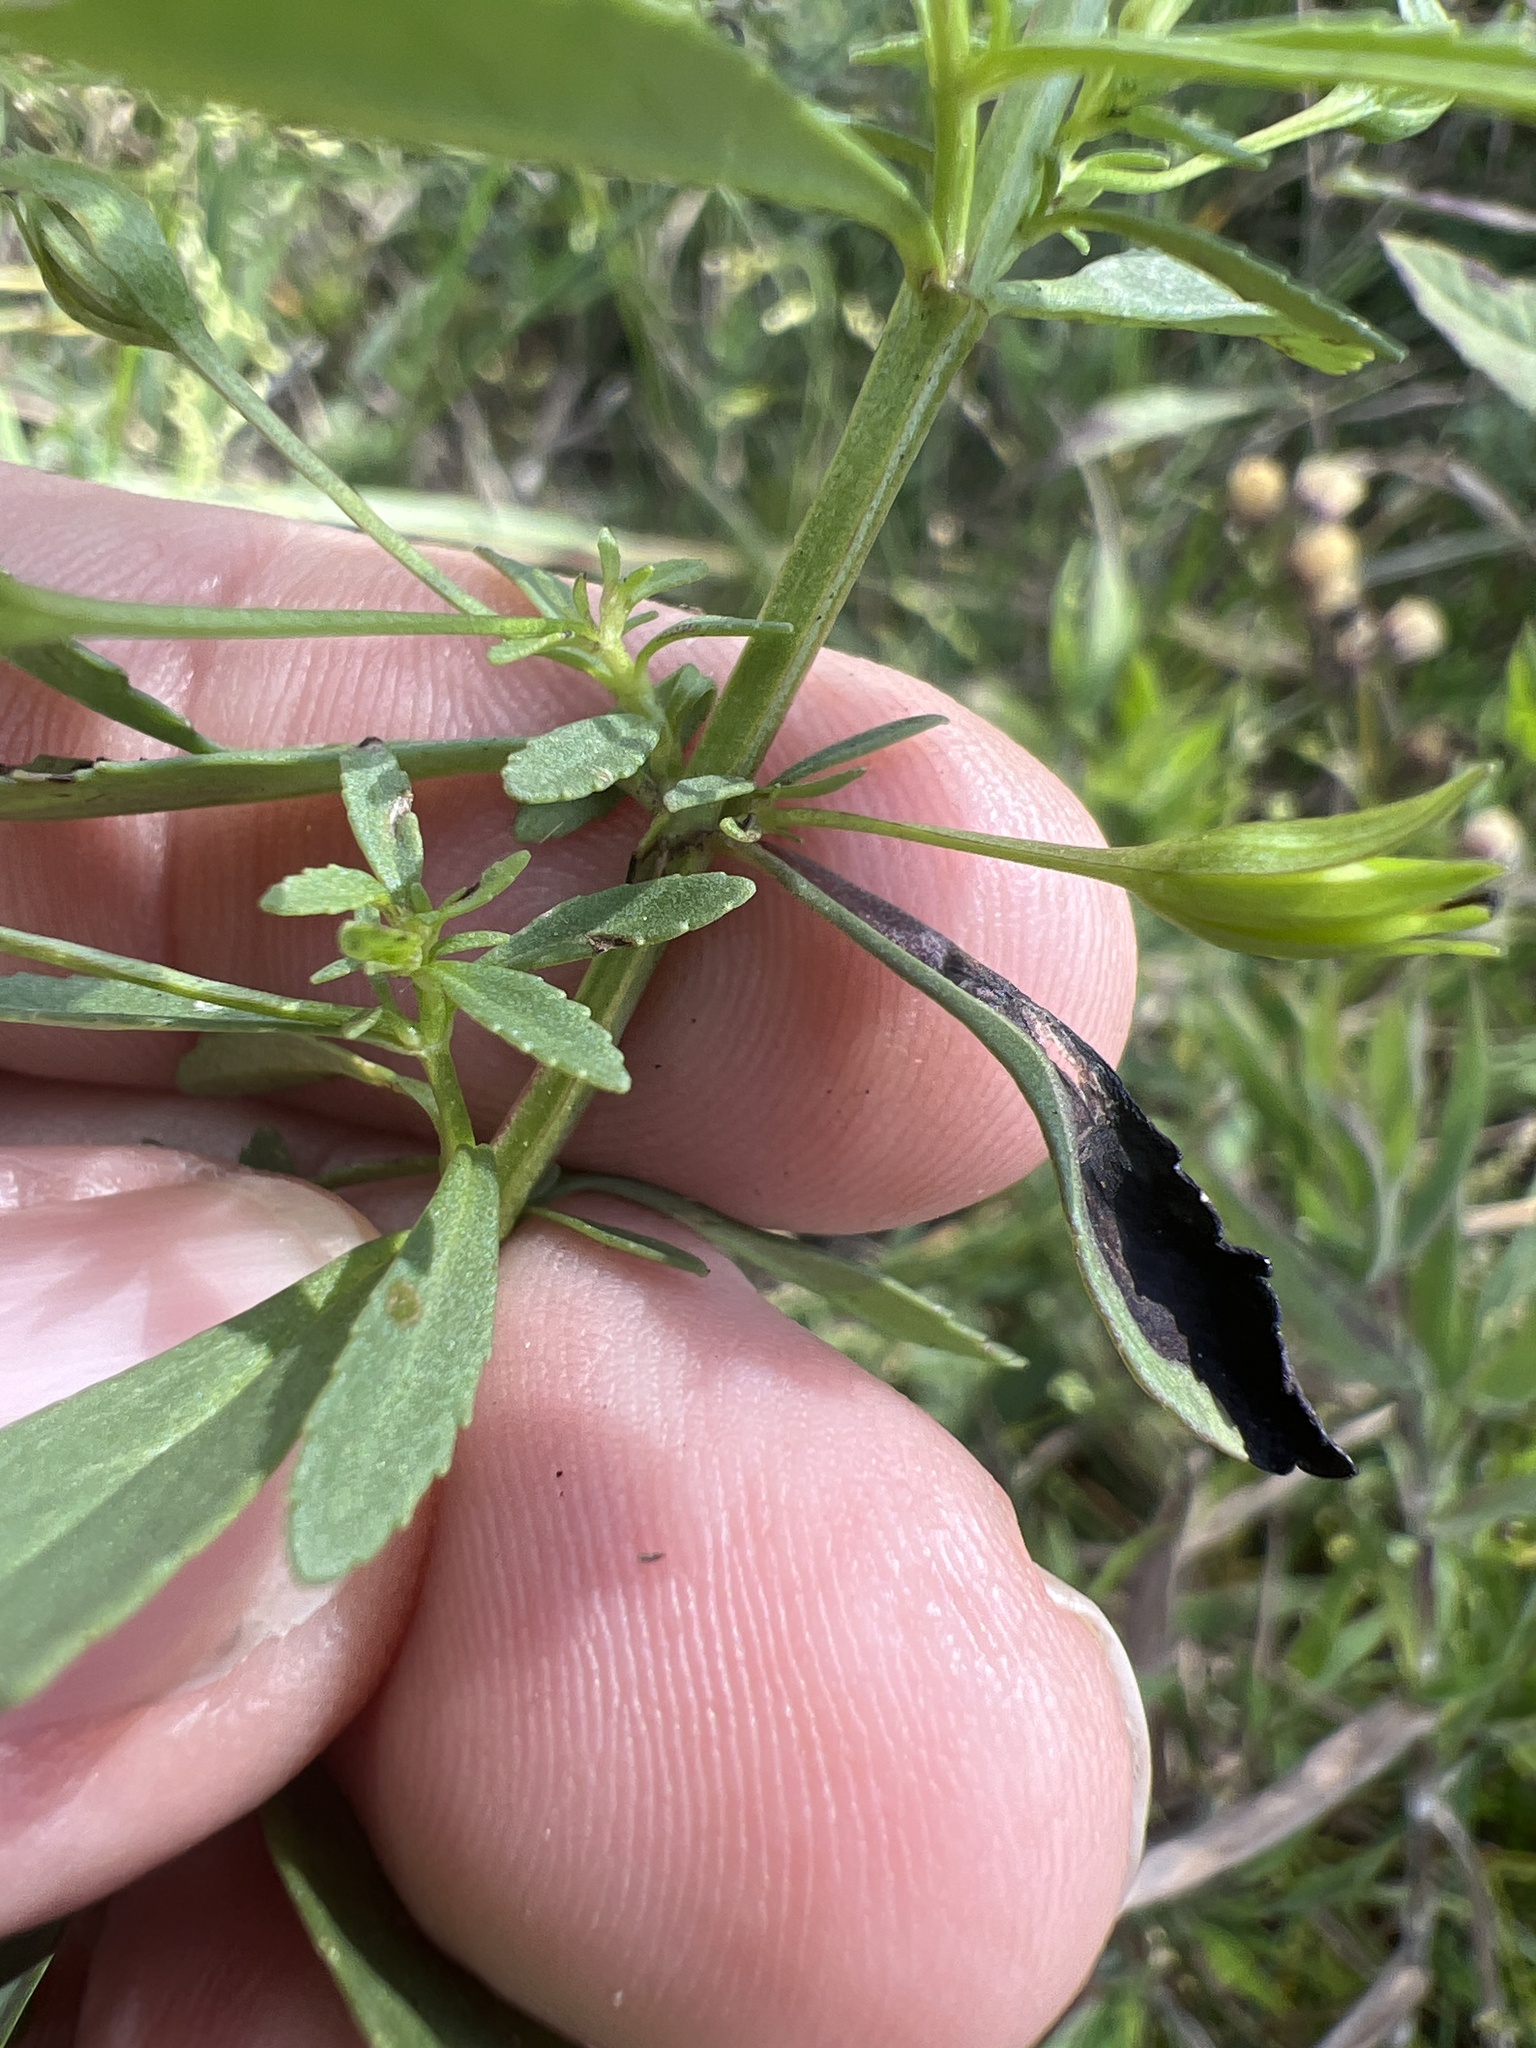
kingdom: Plantae
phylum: Tracheophyta
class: Magnoliopsida
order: Lamiales
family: Plantaginaceae
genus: Mecardonia
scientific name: Mecardonia acuminata
